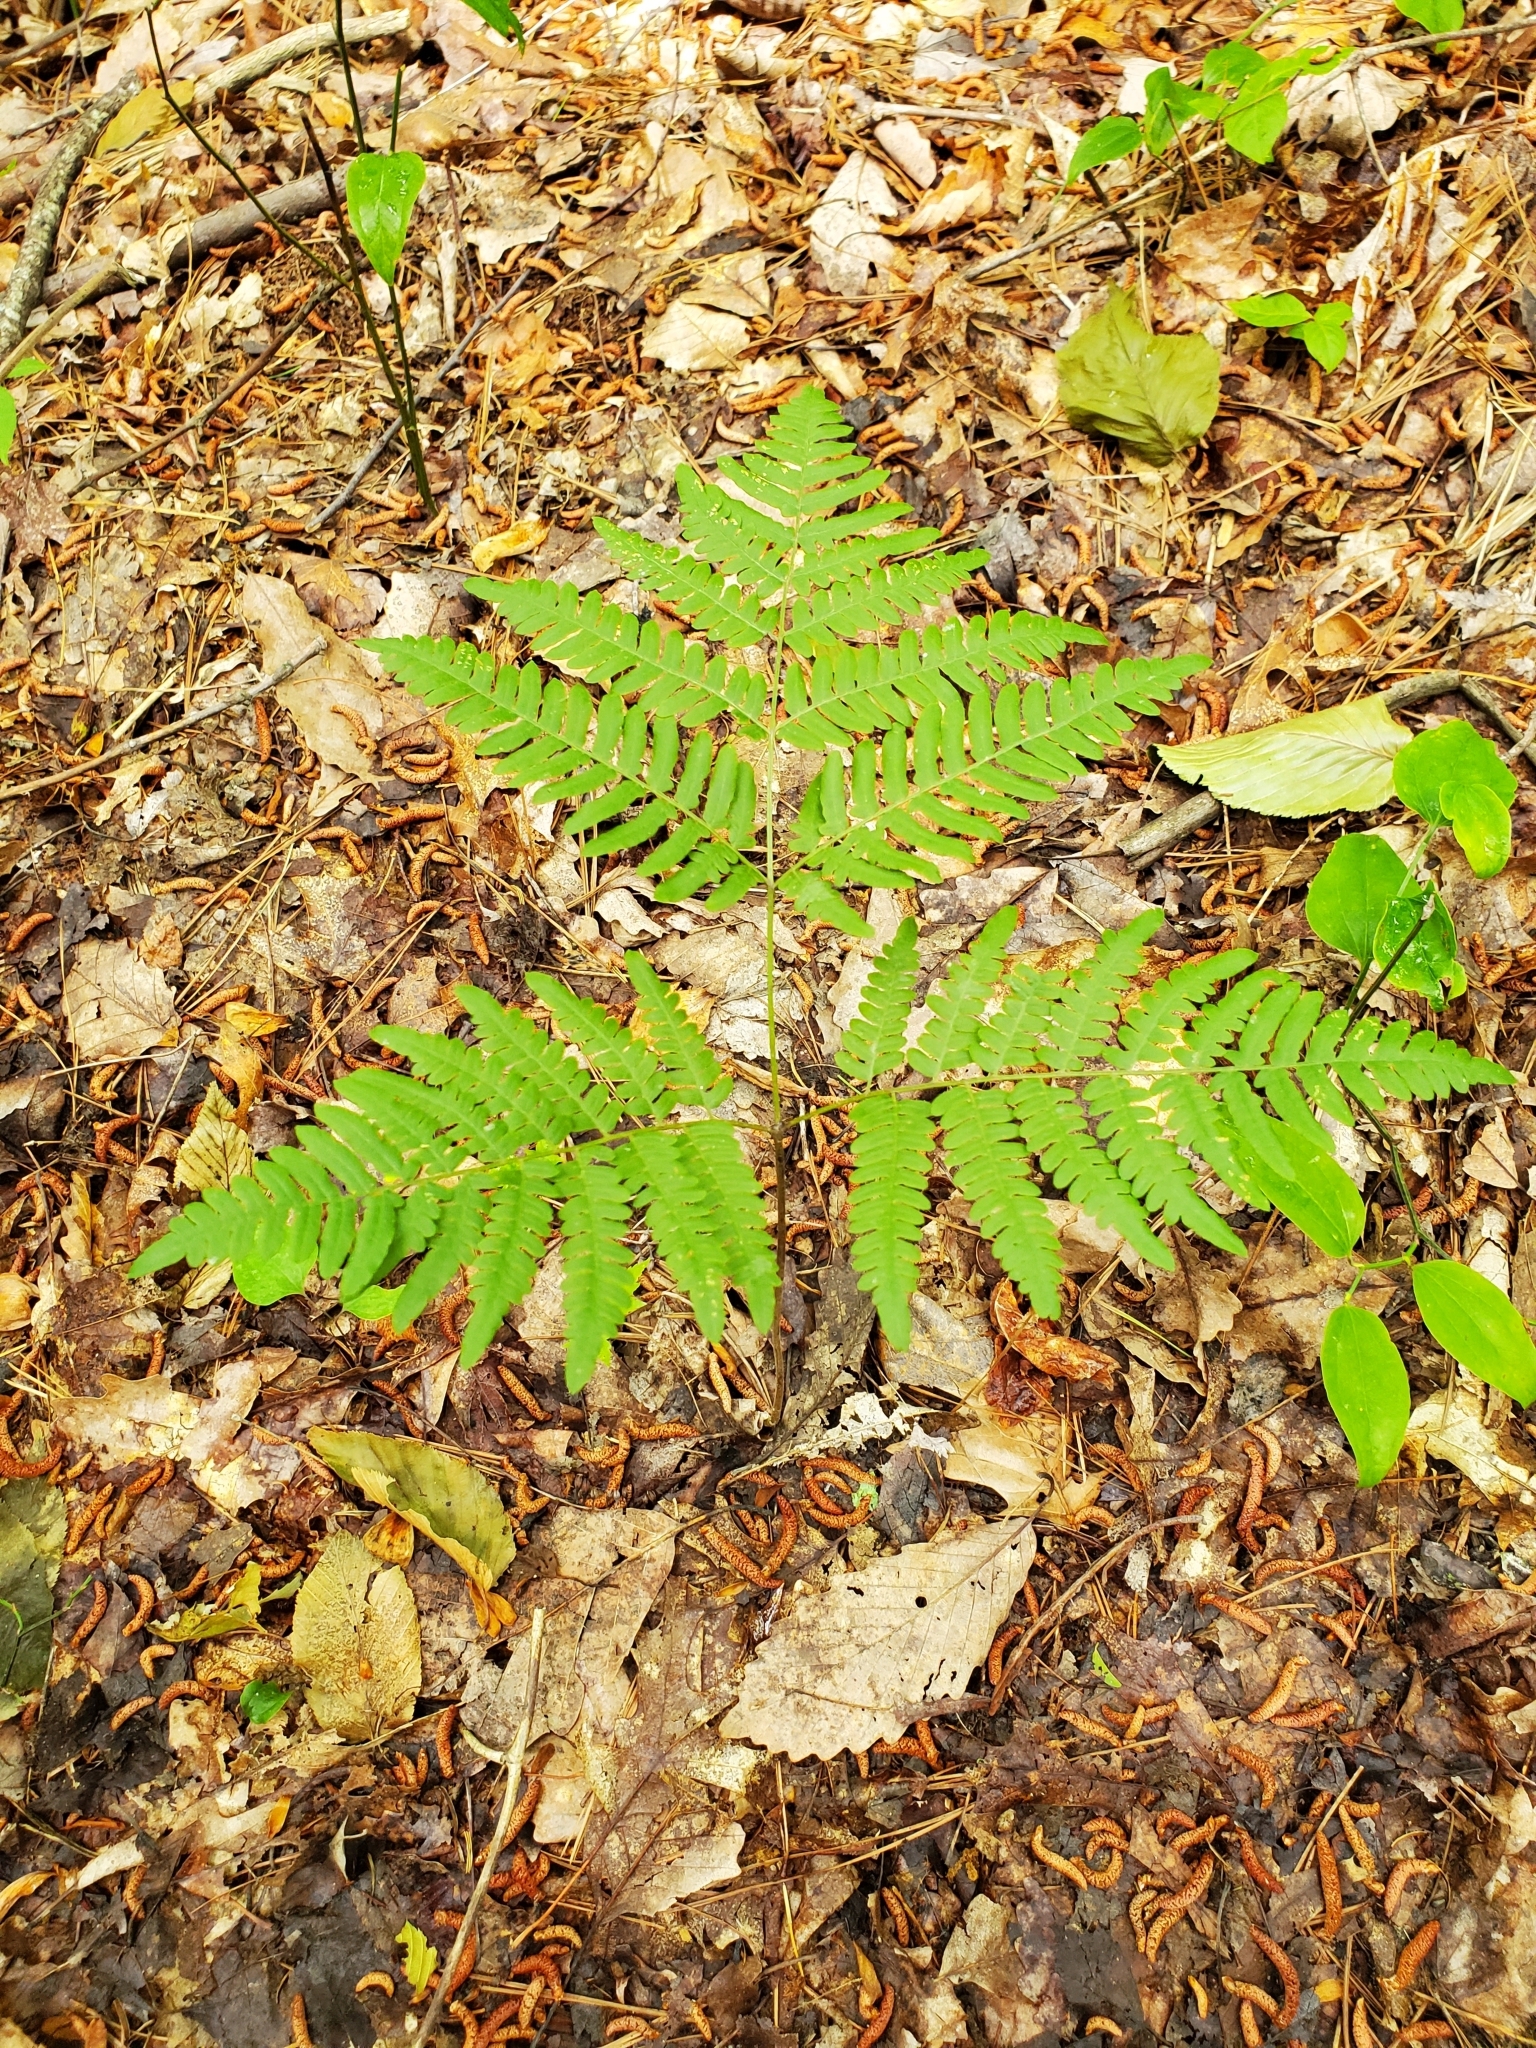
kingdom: Plantae
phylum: Tracheophyta
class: Polypodiopsida
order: Polypodiales
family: Dennstaedtiaceae
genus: Pteridium
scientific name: Pteridium aquilinum
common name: Bracken
